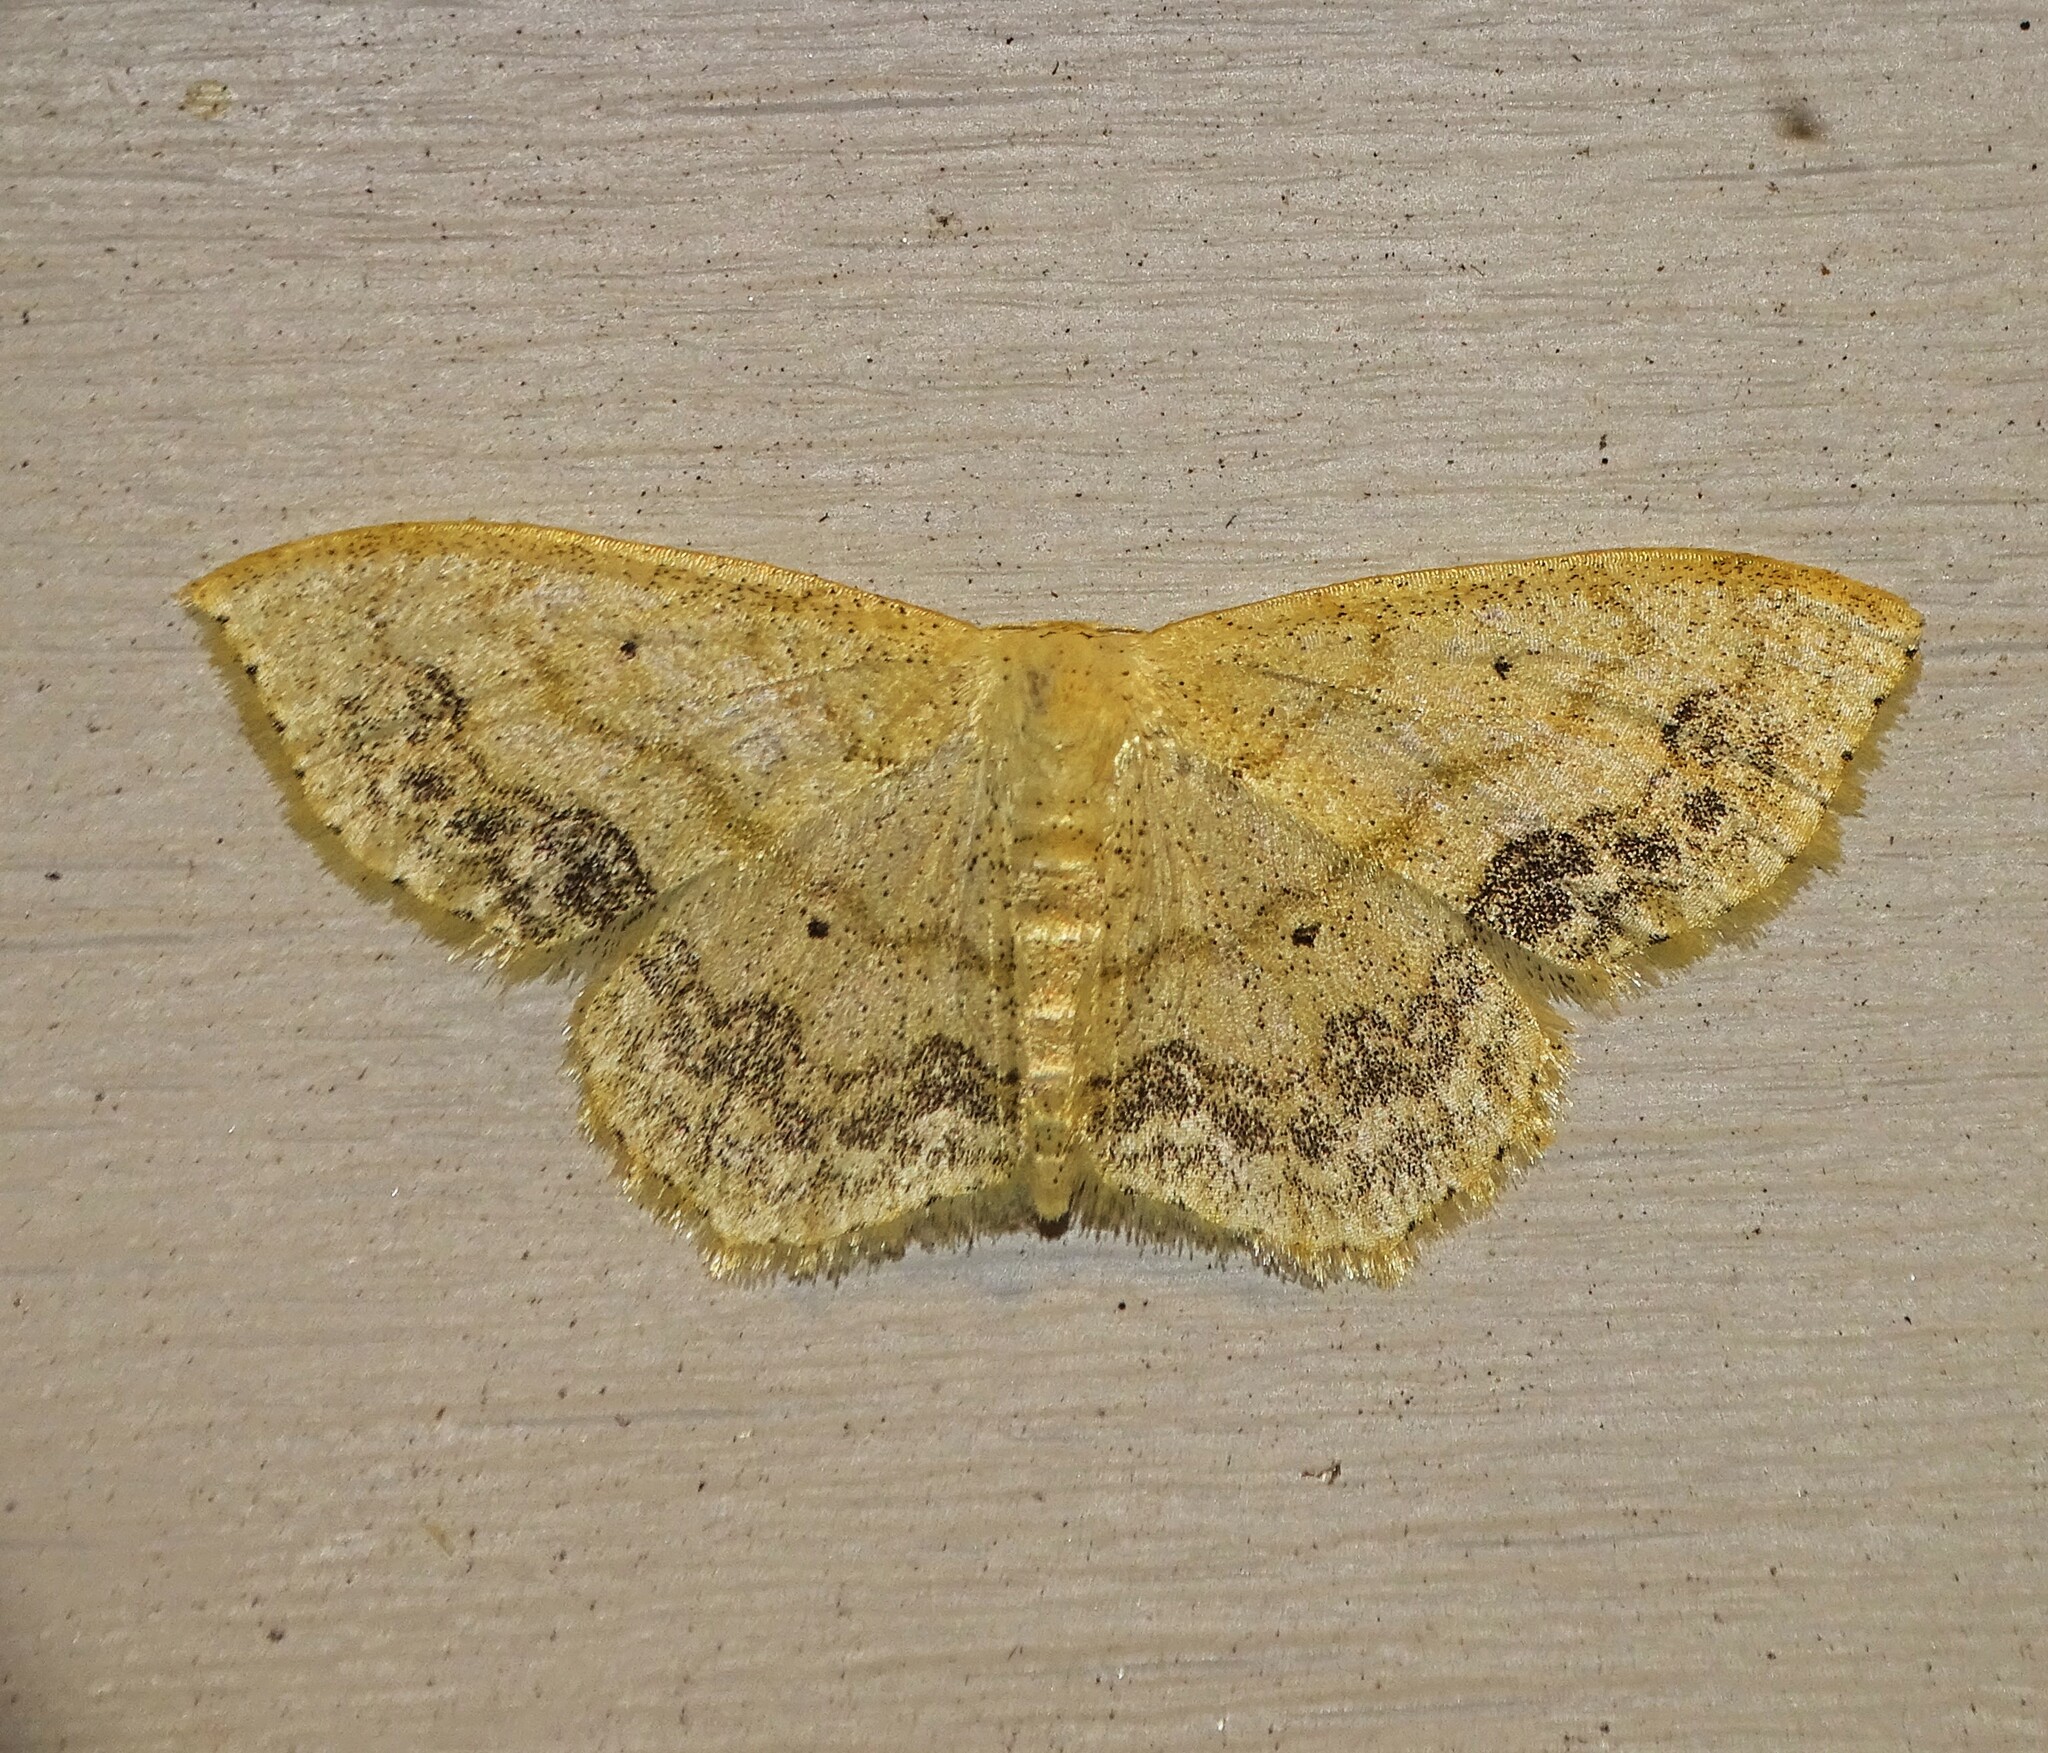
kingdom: Animalia
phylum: Arthropoda
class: Insecta
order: Lepidoptera
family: Geometridae
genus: Scopula
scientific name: Scopula limboundata
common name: Large lace border
